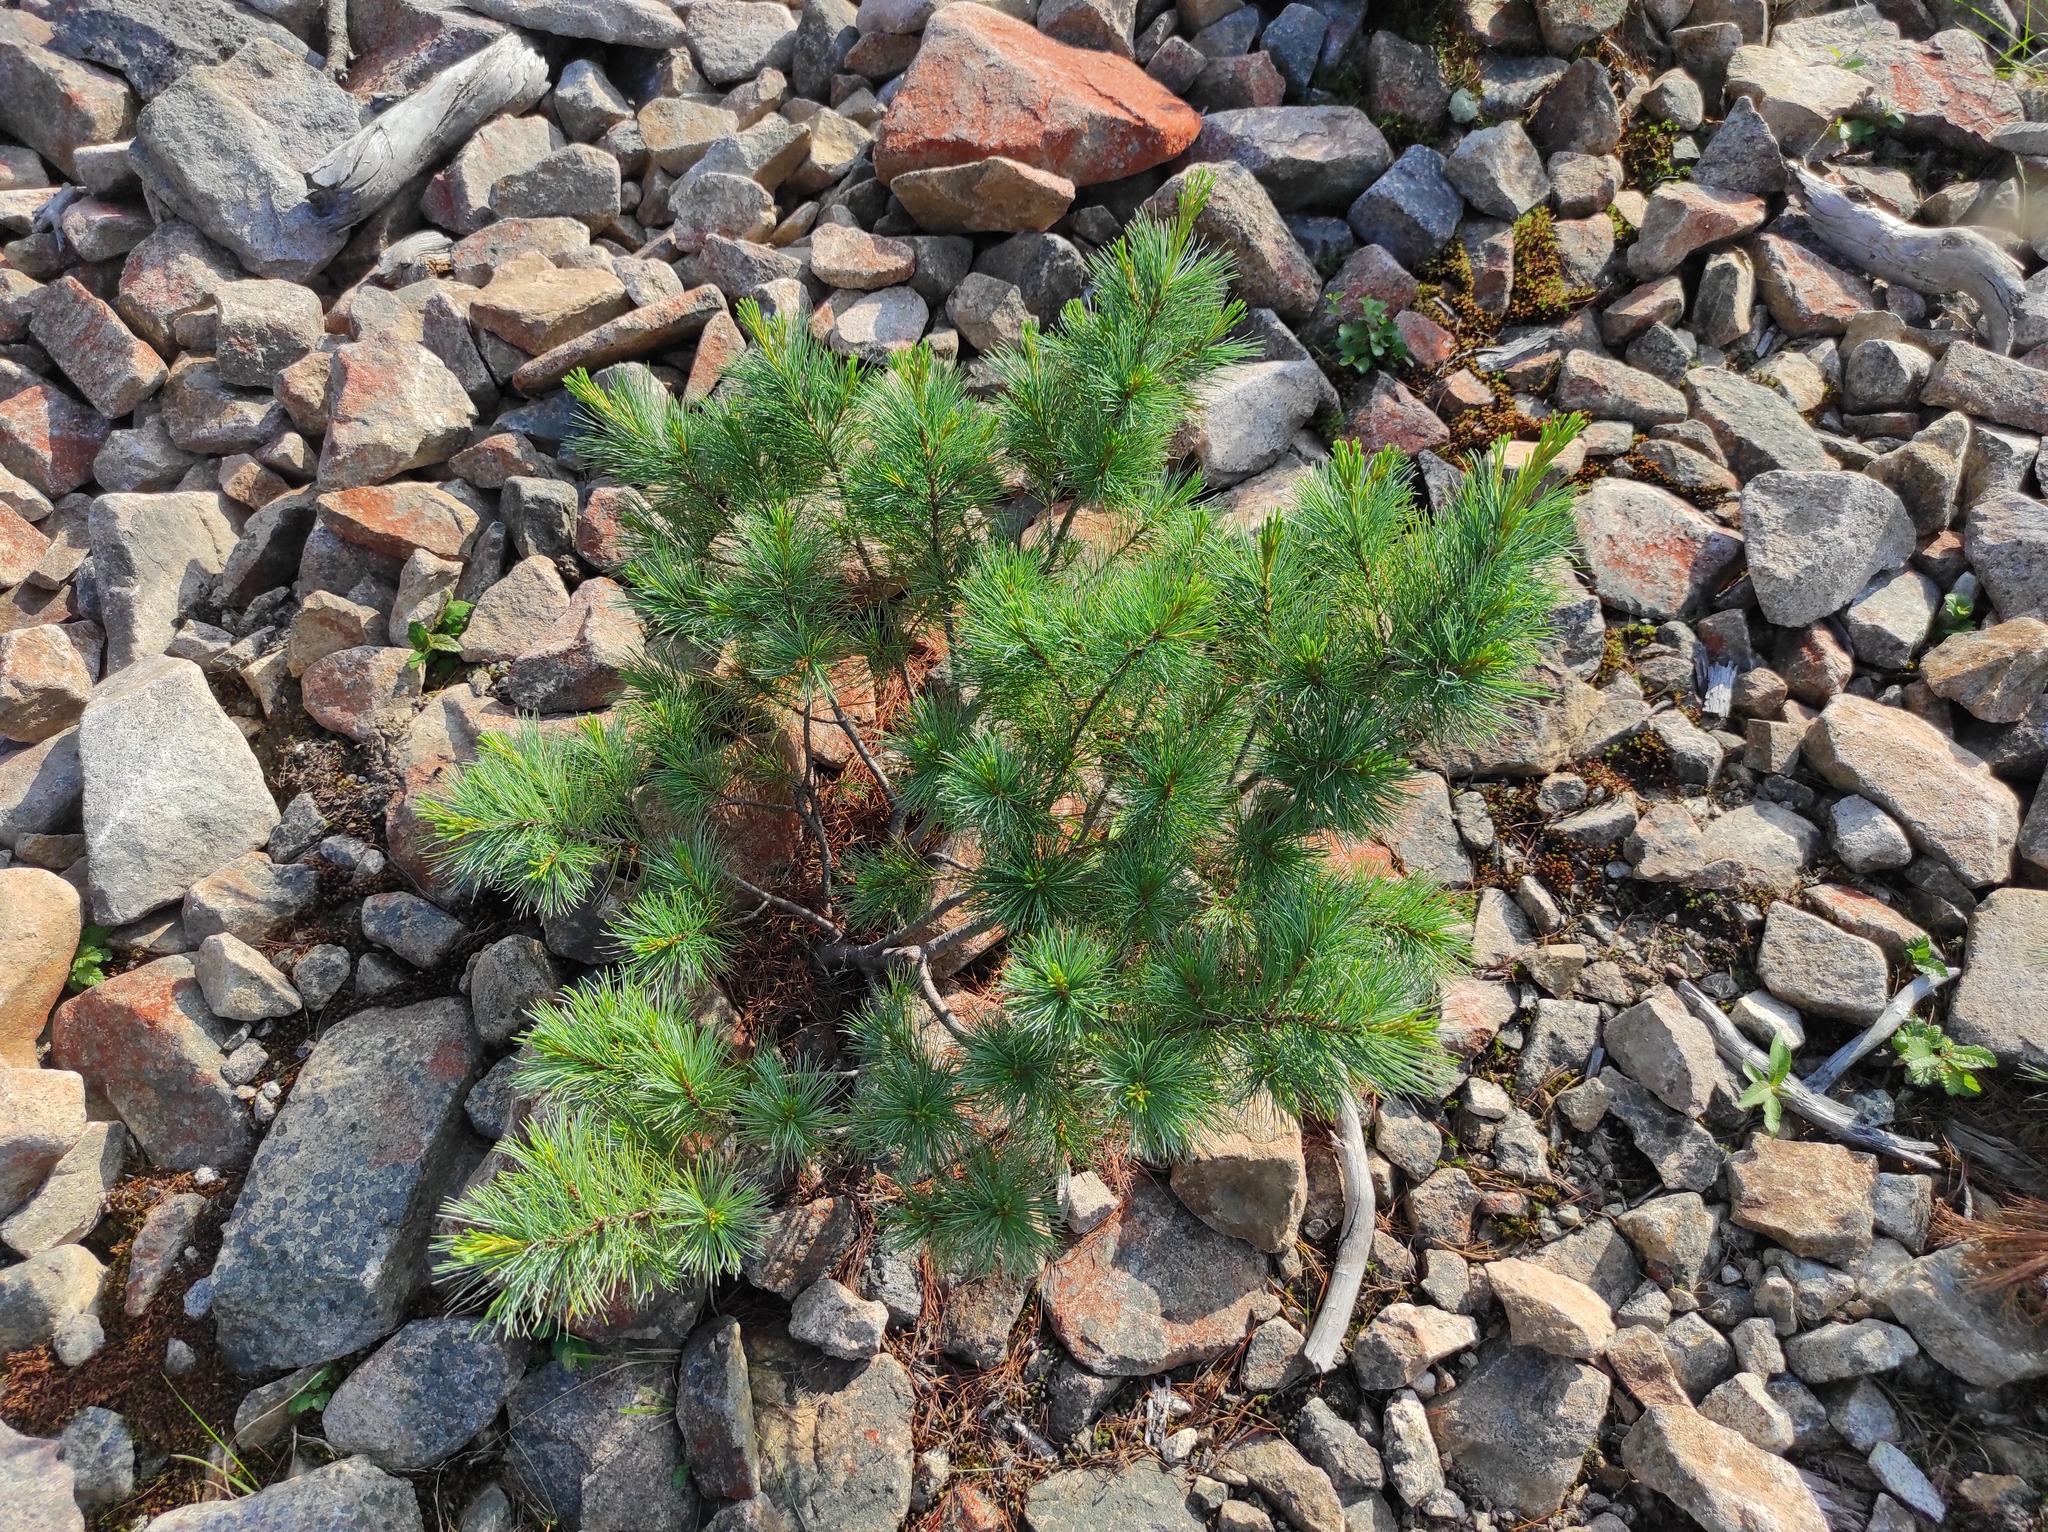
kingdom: Plantae
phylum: Tracheophyta
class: Pinopsida
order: Pinales
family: Pinaceae
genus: Pinus
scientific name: Pinus pumila
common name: Dwarf siberian pine
